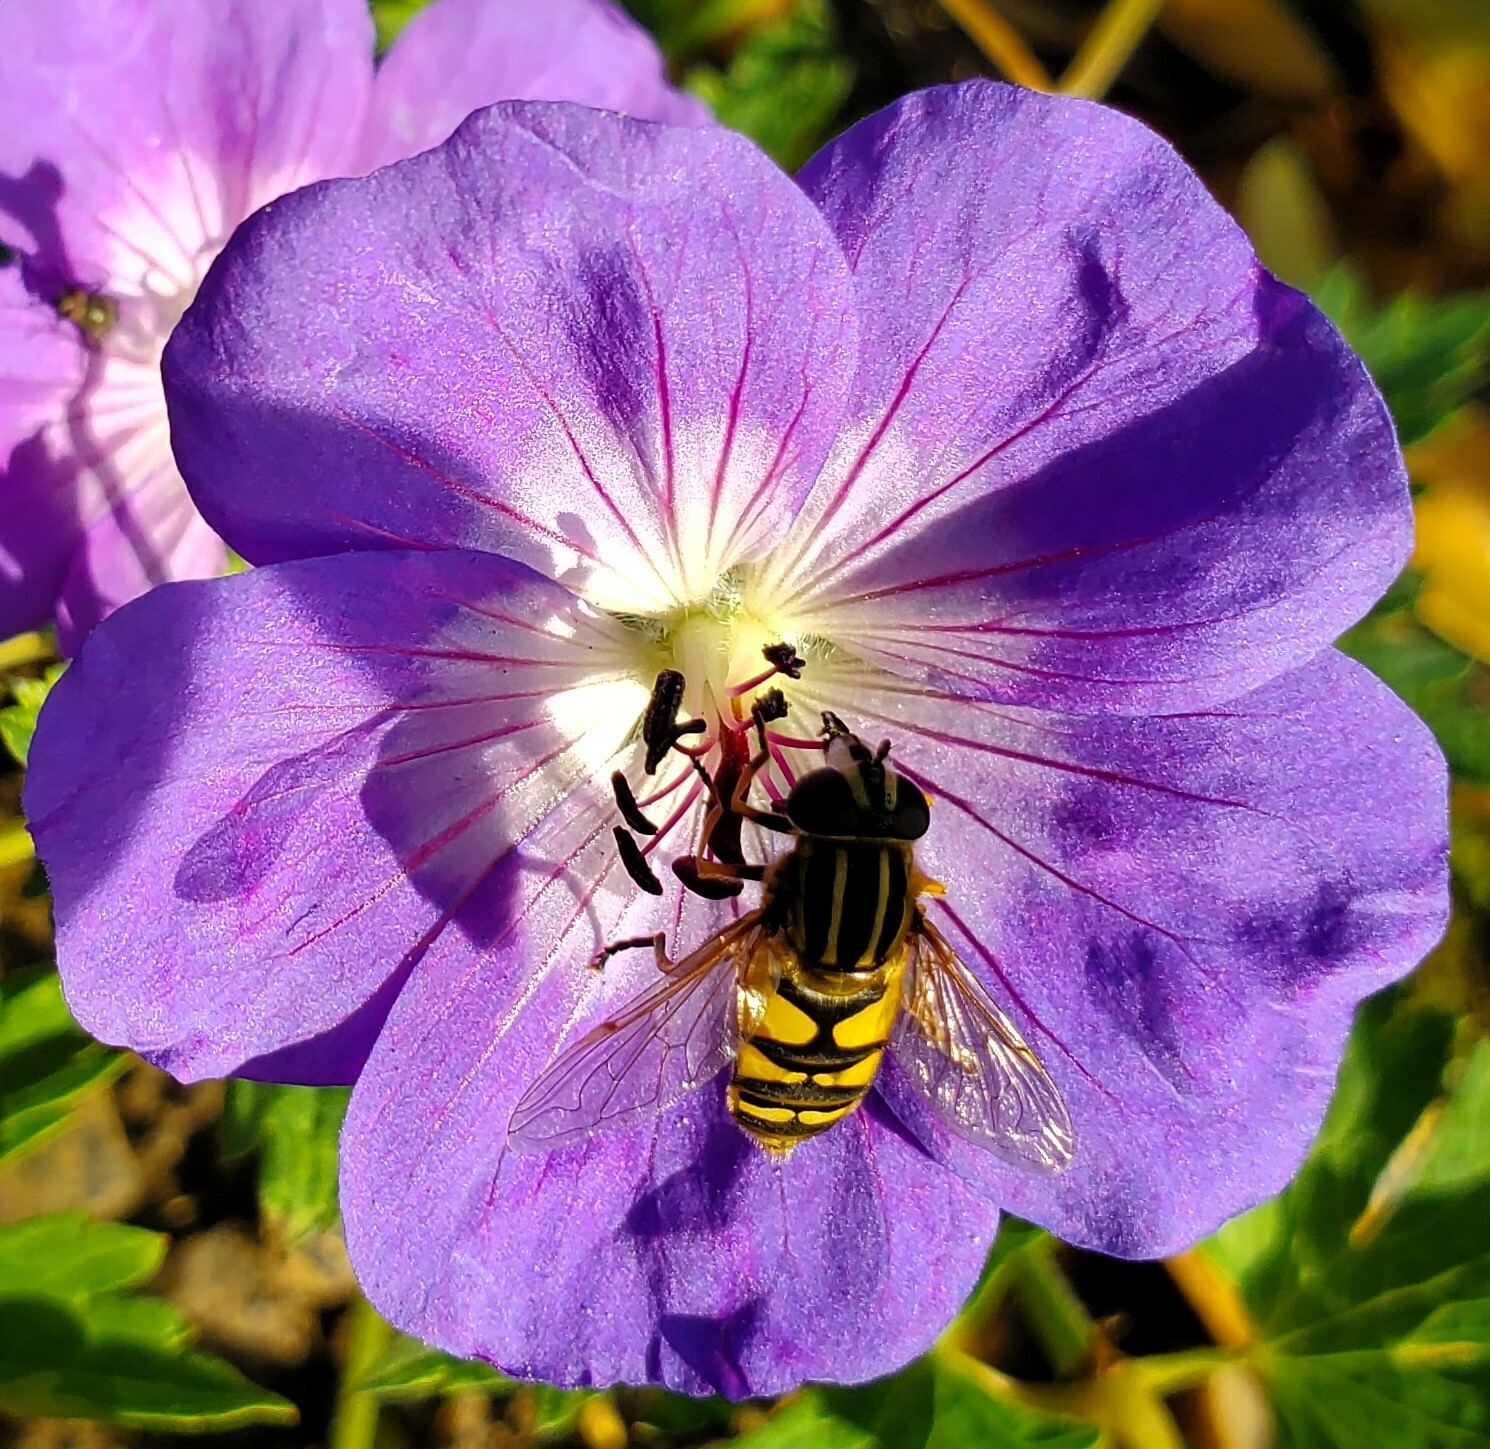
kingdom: Animalia
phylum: Arthropoda
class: Insecta
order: Diptera
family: Syrphidae
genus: Helophilus
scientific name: Helophilus pendulus
